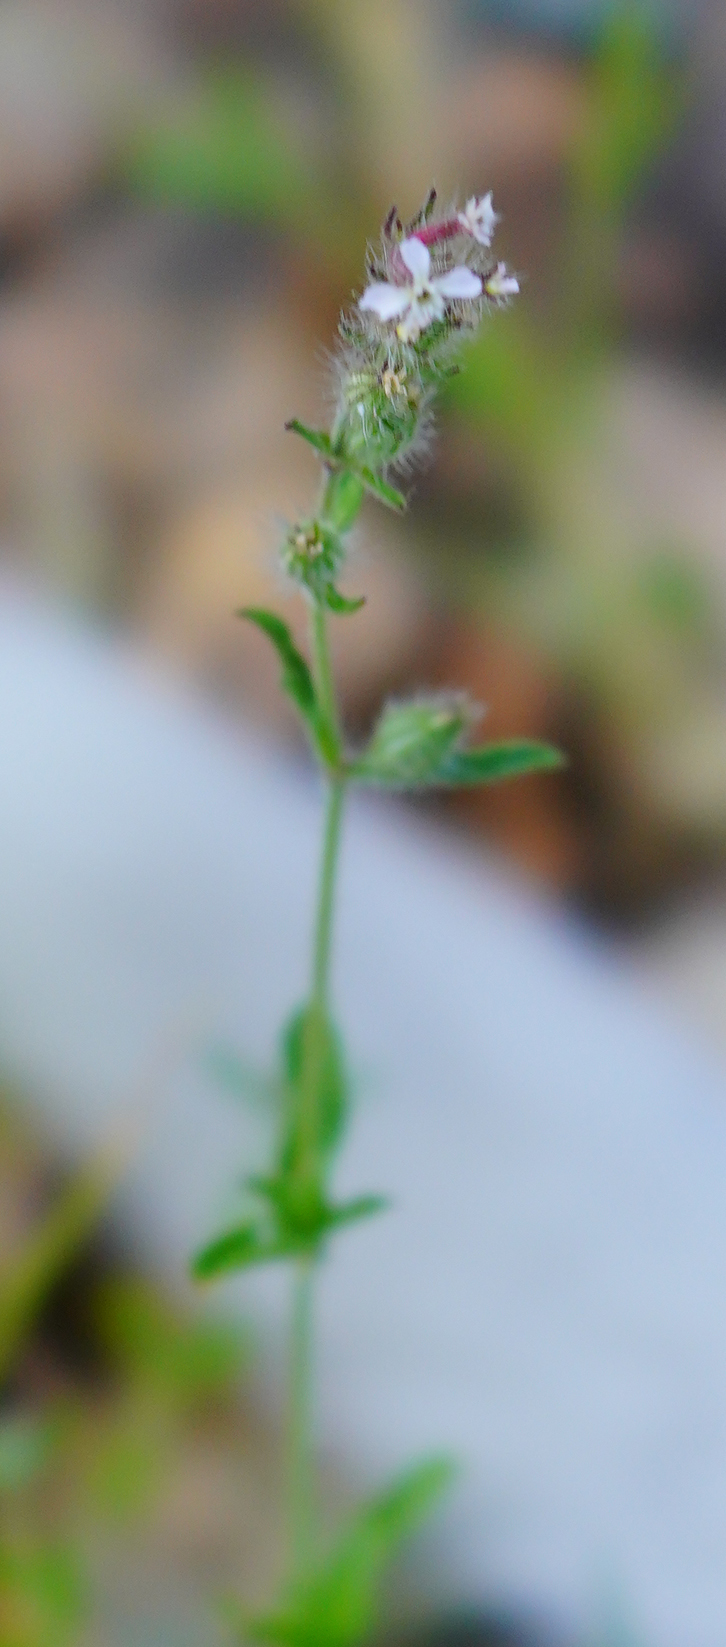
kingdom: Plantae
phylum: Tracheophyta
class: Magnoliopsida
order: Caryophyllales
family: Caryophyllaceae
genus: Silene
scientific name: Silene gallica
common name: Small-flowered catchfly
